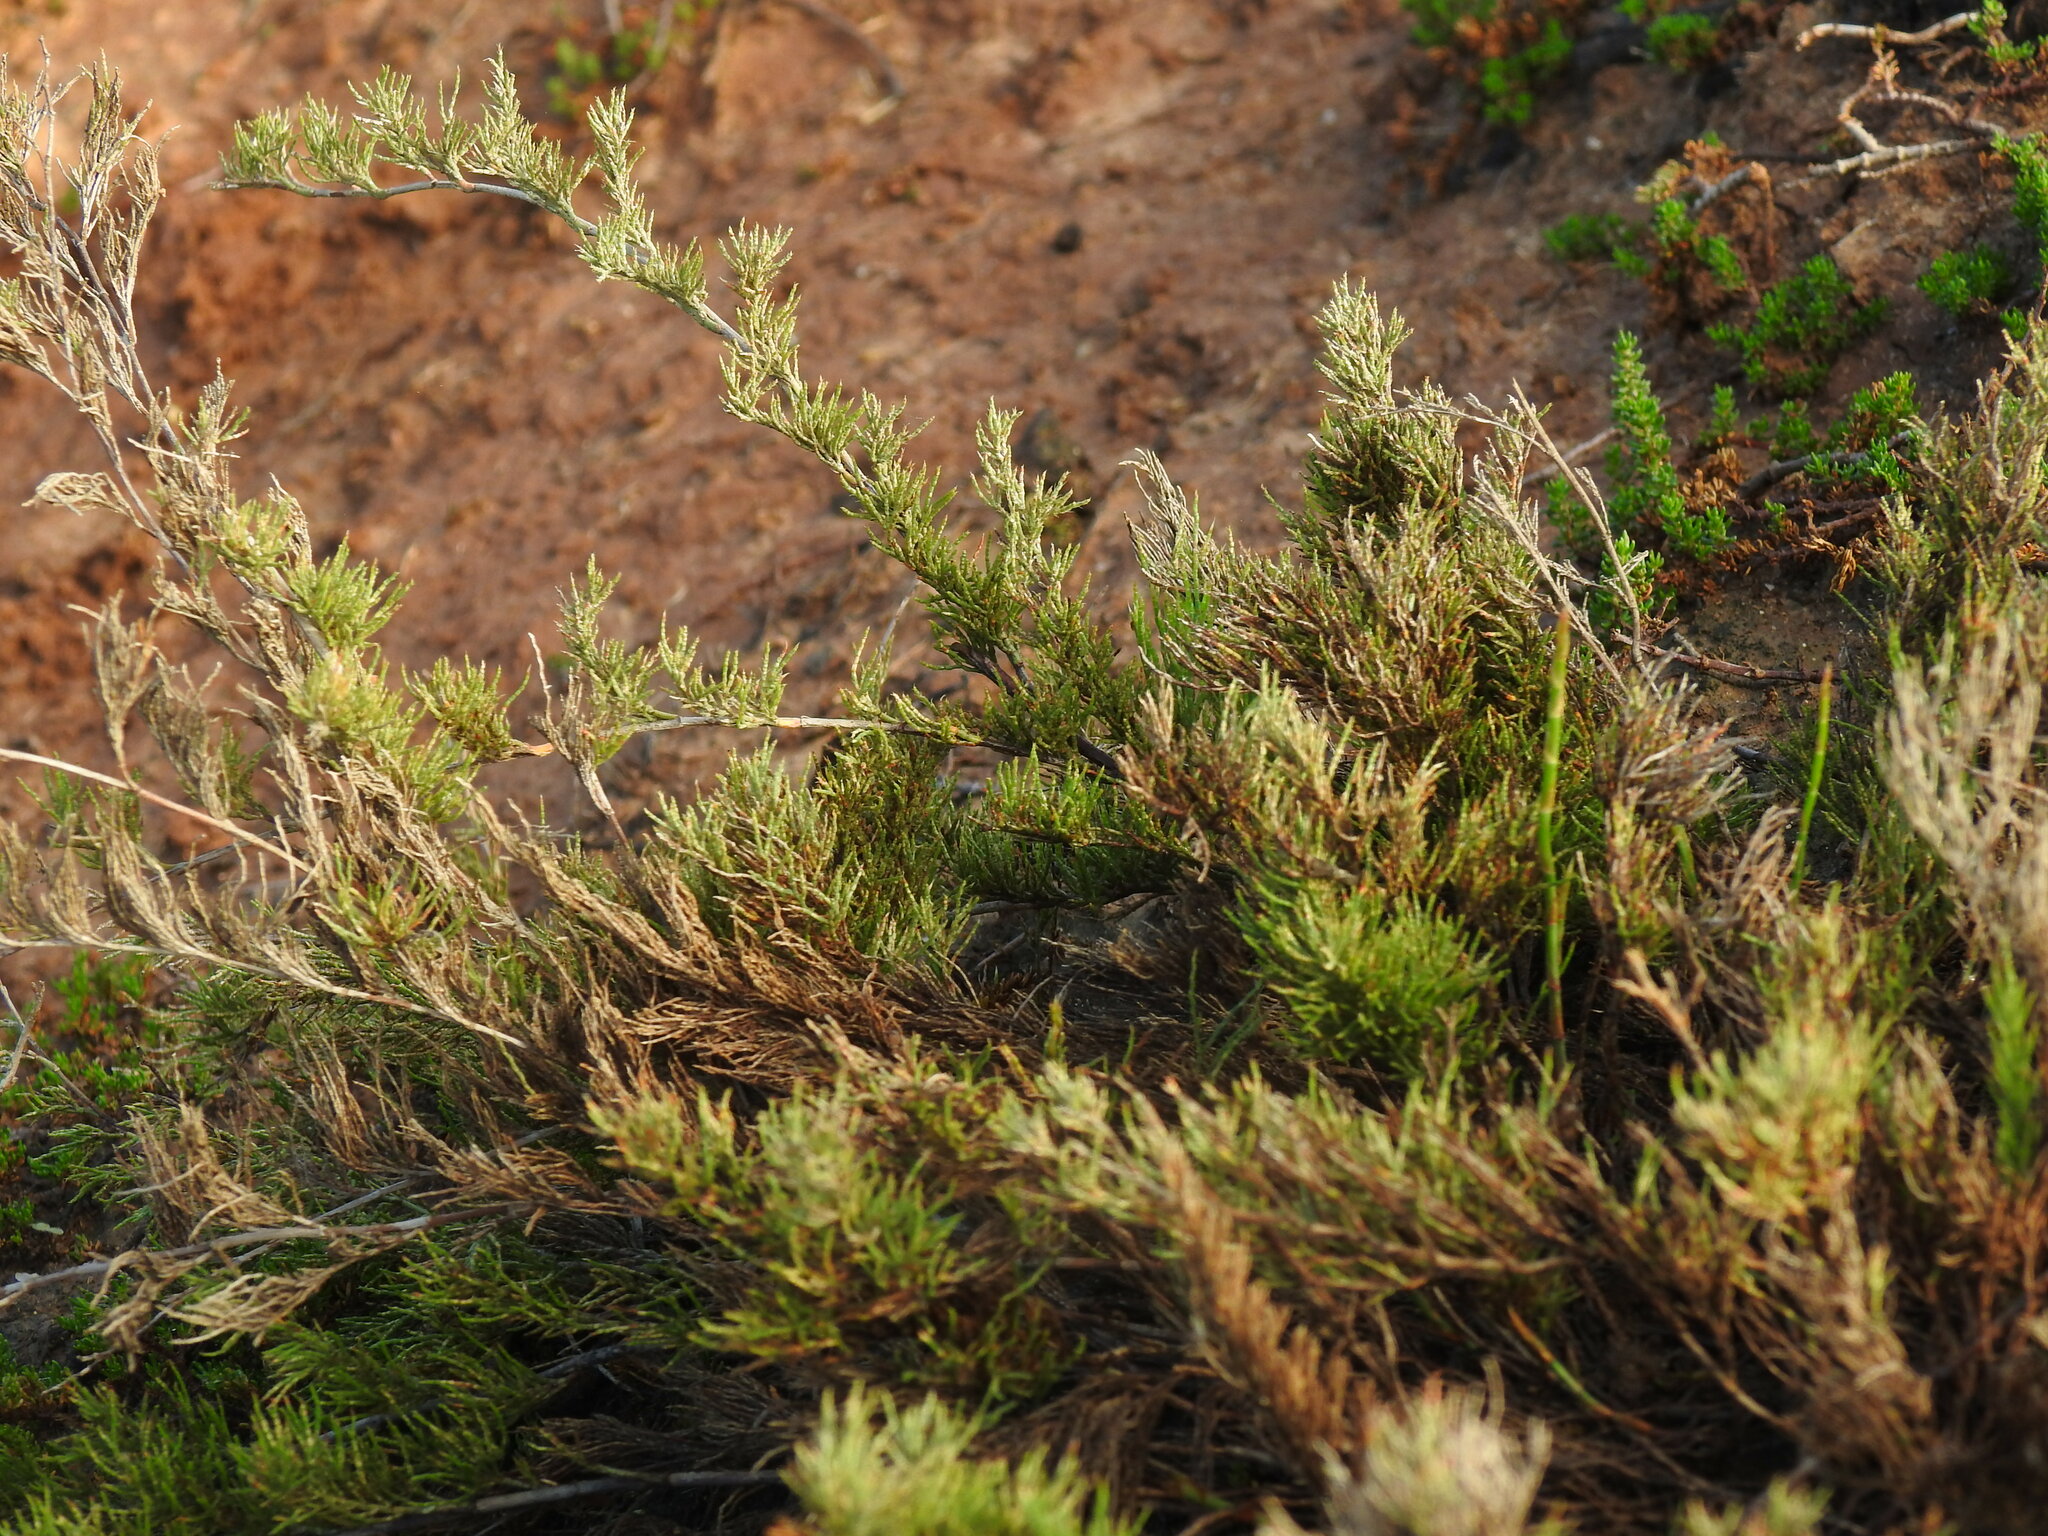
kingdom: Plantae
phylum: Tracheophyta
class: Magnoliopsida
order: Caryophyllales
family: Plumbaginaceae
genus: Myriolimon
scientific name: Myriolimon ferulaceum
